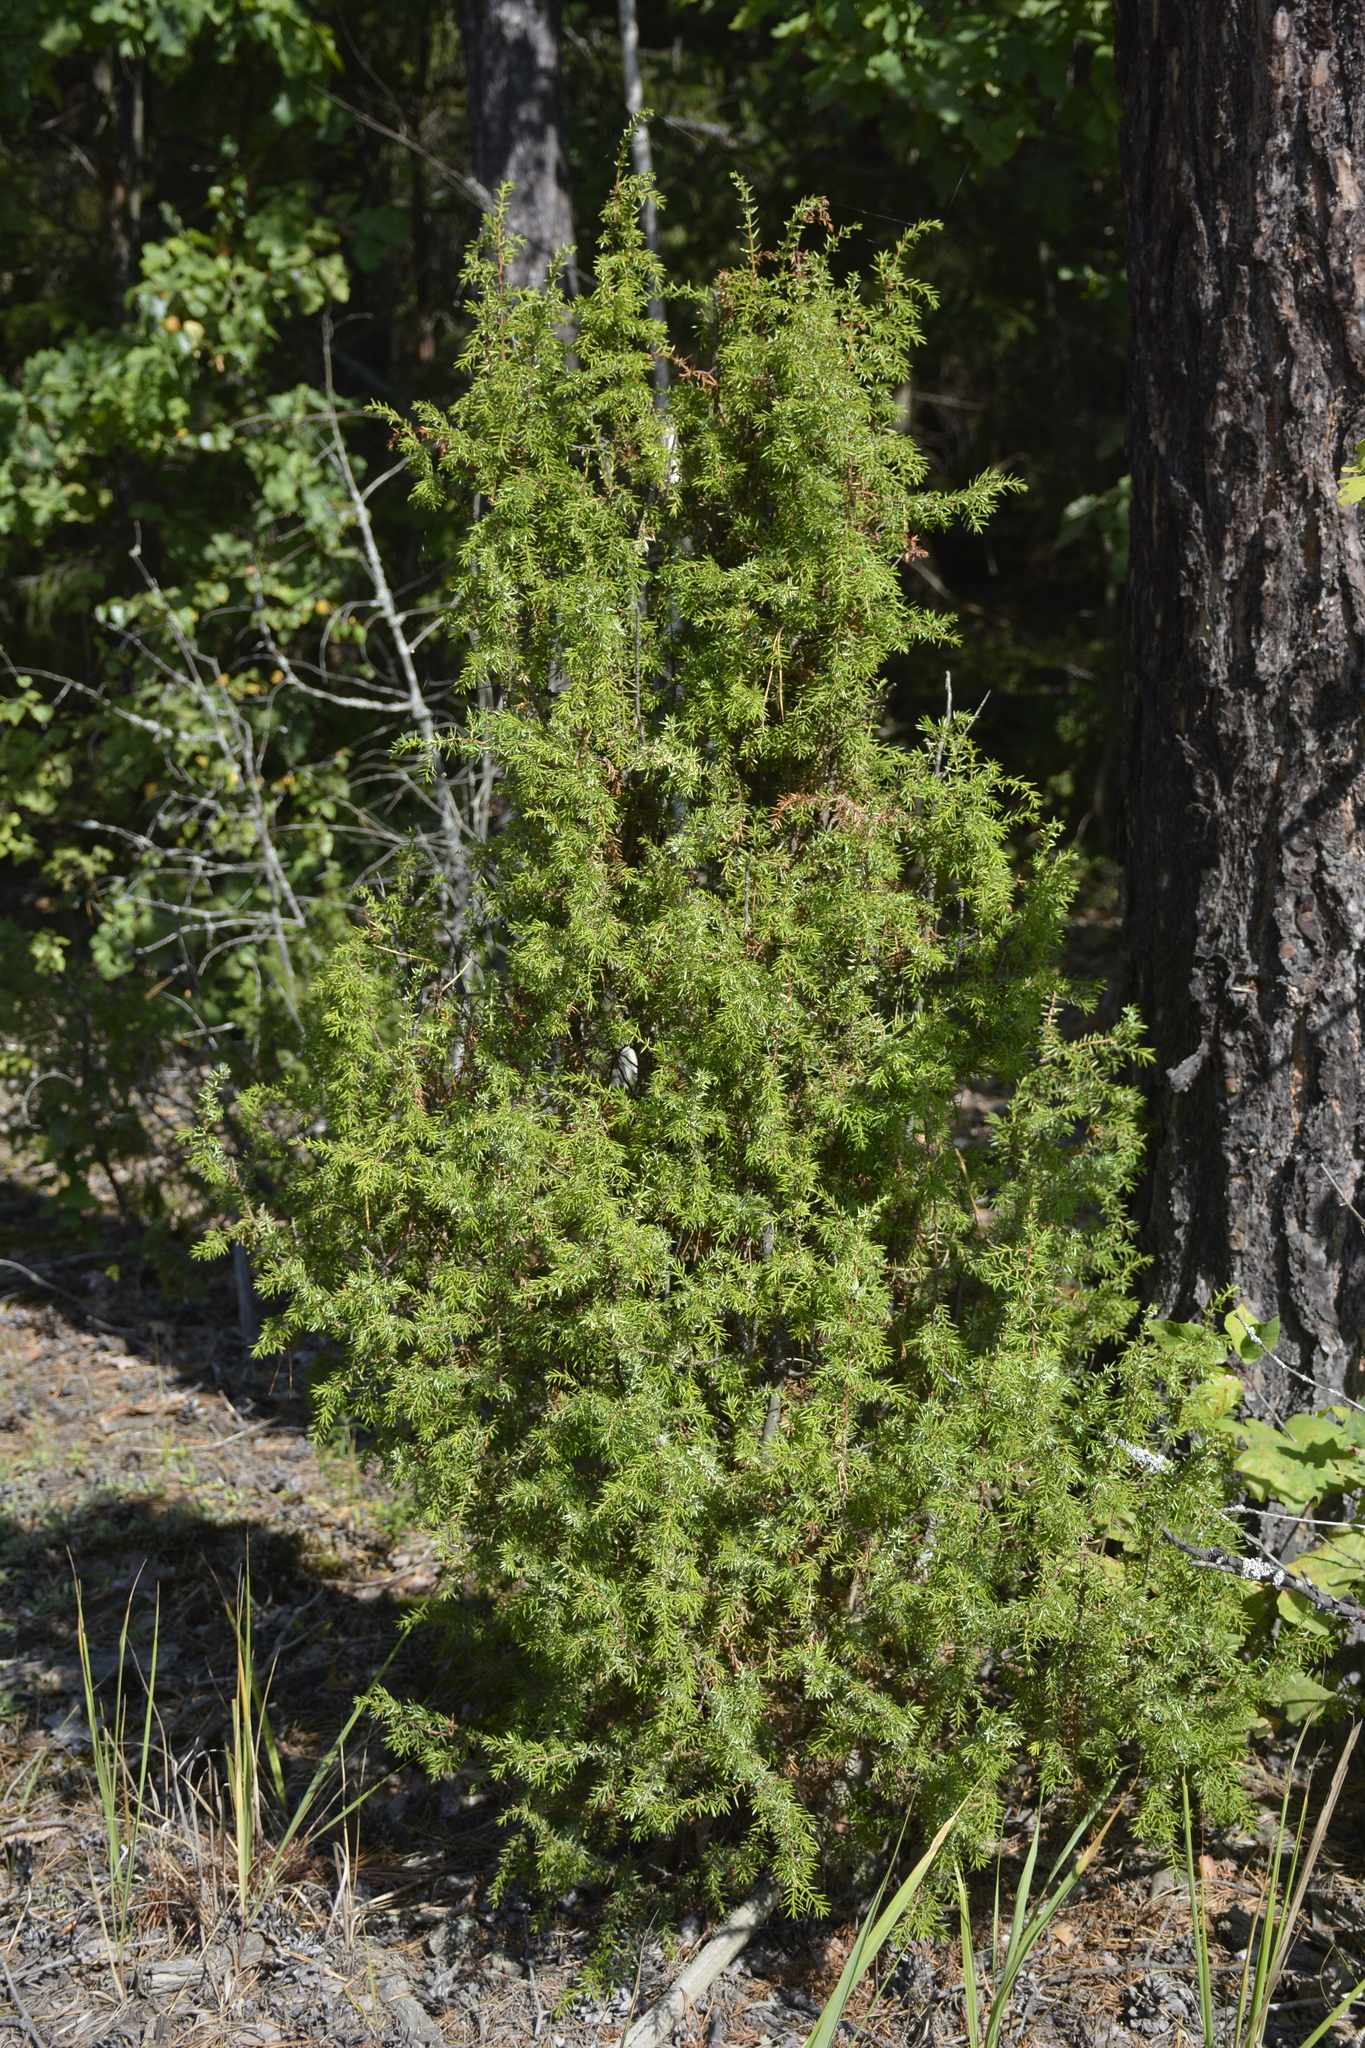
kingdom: Plantae
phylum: Tracheophyta
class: Pinopsida
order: Pinales
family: Cupressaceae
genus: Juniperus
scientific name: Juniperus communis
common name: Common juniper
